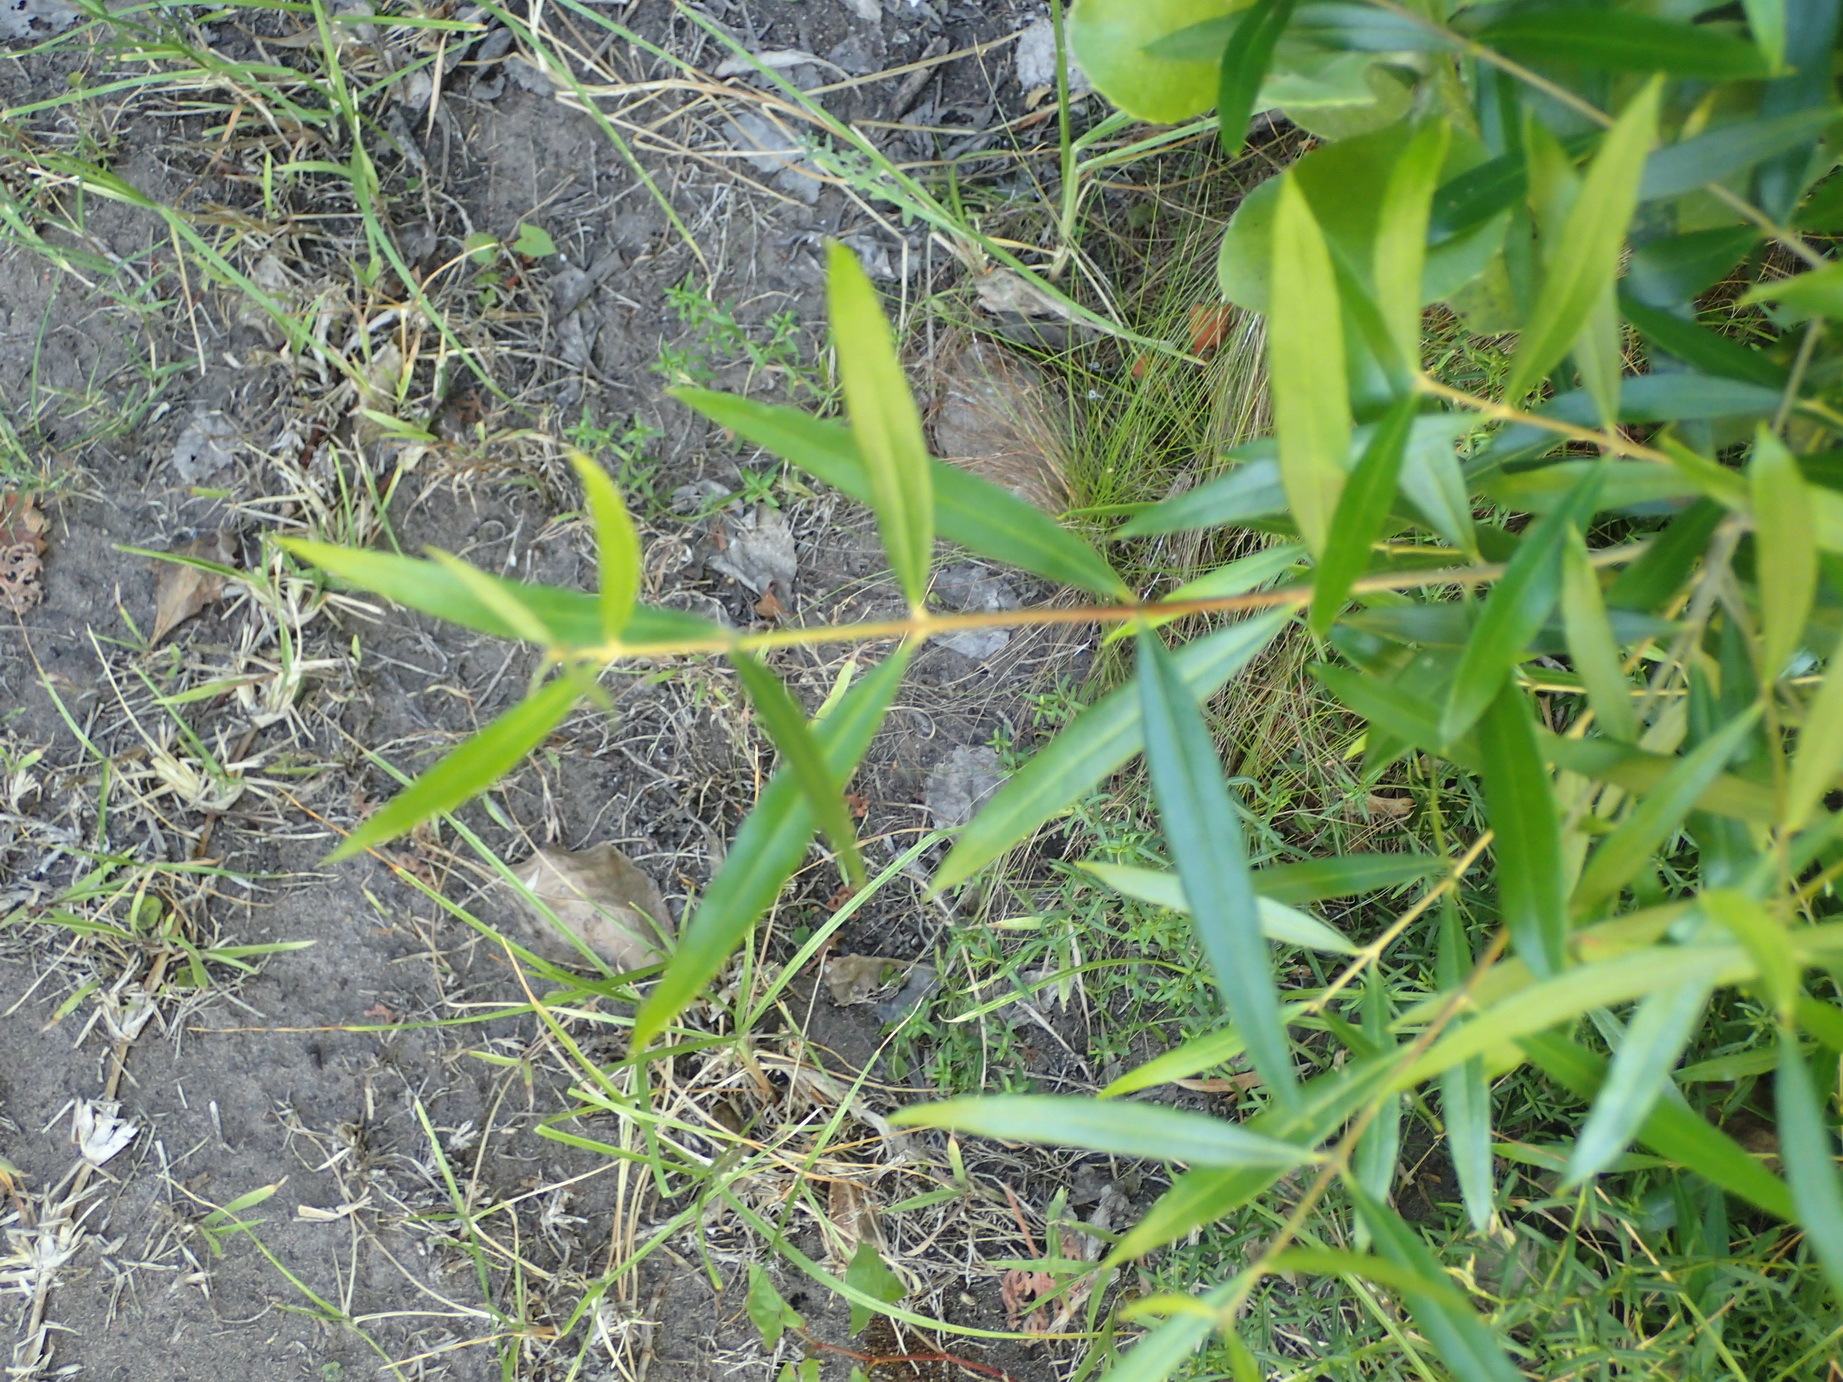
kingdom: Plantae
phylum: Tracheophyta
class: Magnoliopsida
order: Lamiales
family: Oleaceae
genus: Olea
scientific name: Olea exasperata
